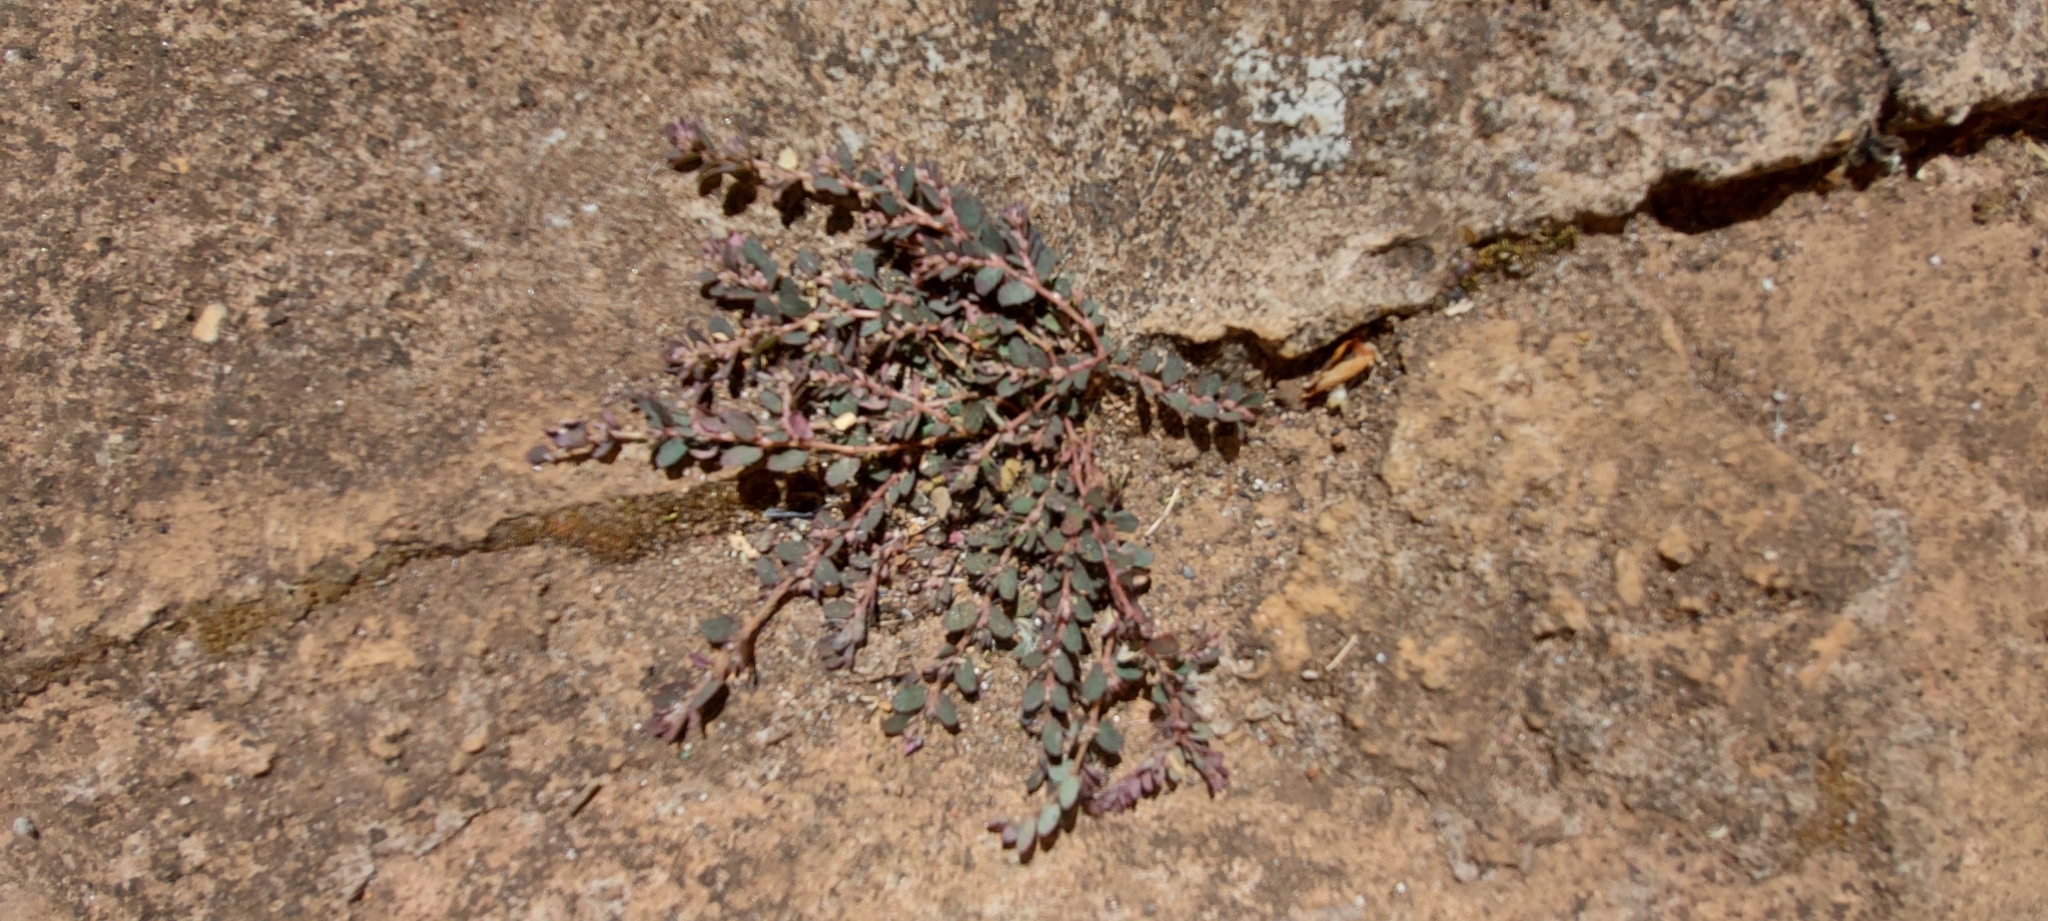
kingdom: Plantae
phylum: Tracheophyta
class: Magnoliopsida
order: Malpighiales
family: Euphorbiaceae
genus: Euphorbia
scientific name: Euphorbia prostrata
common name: Prostrate sandmat
